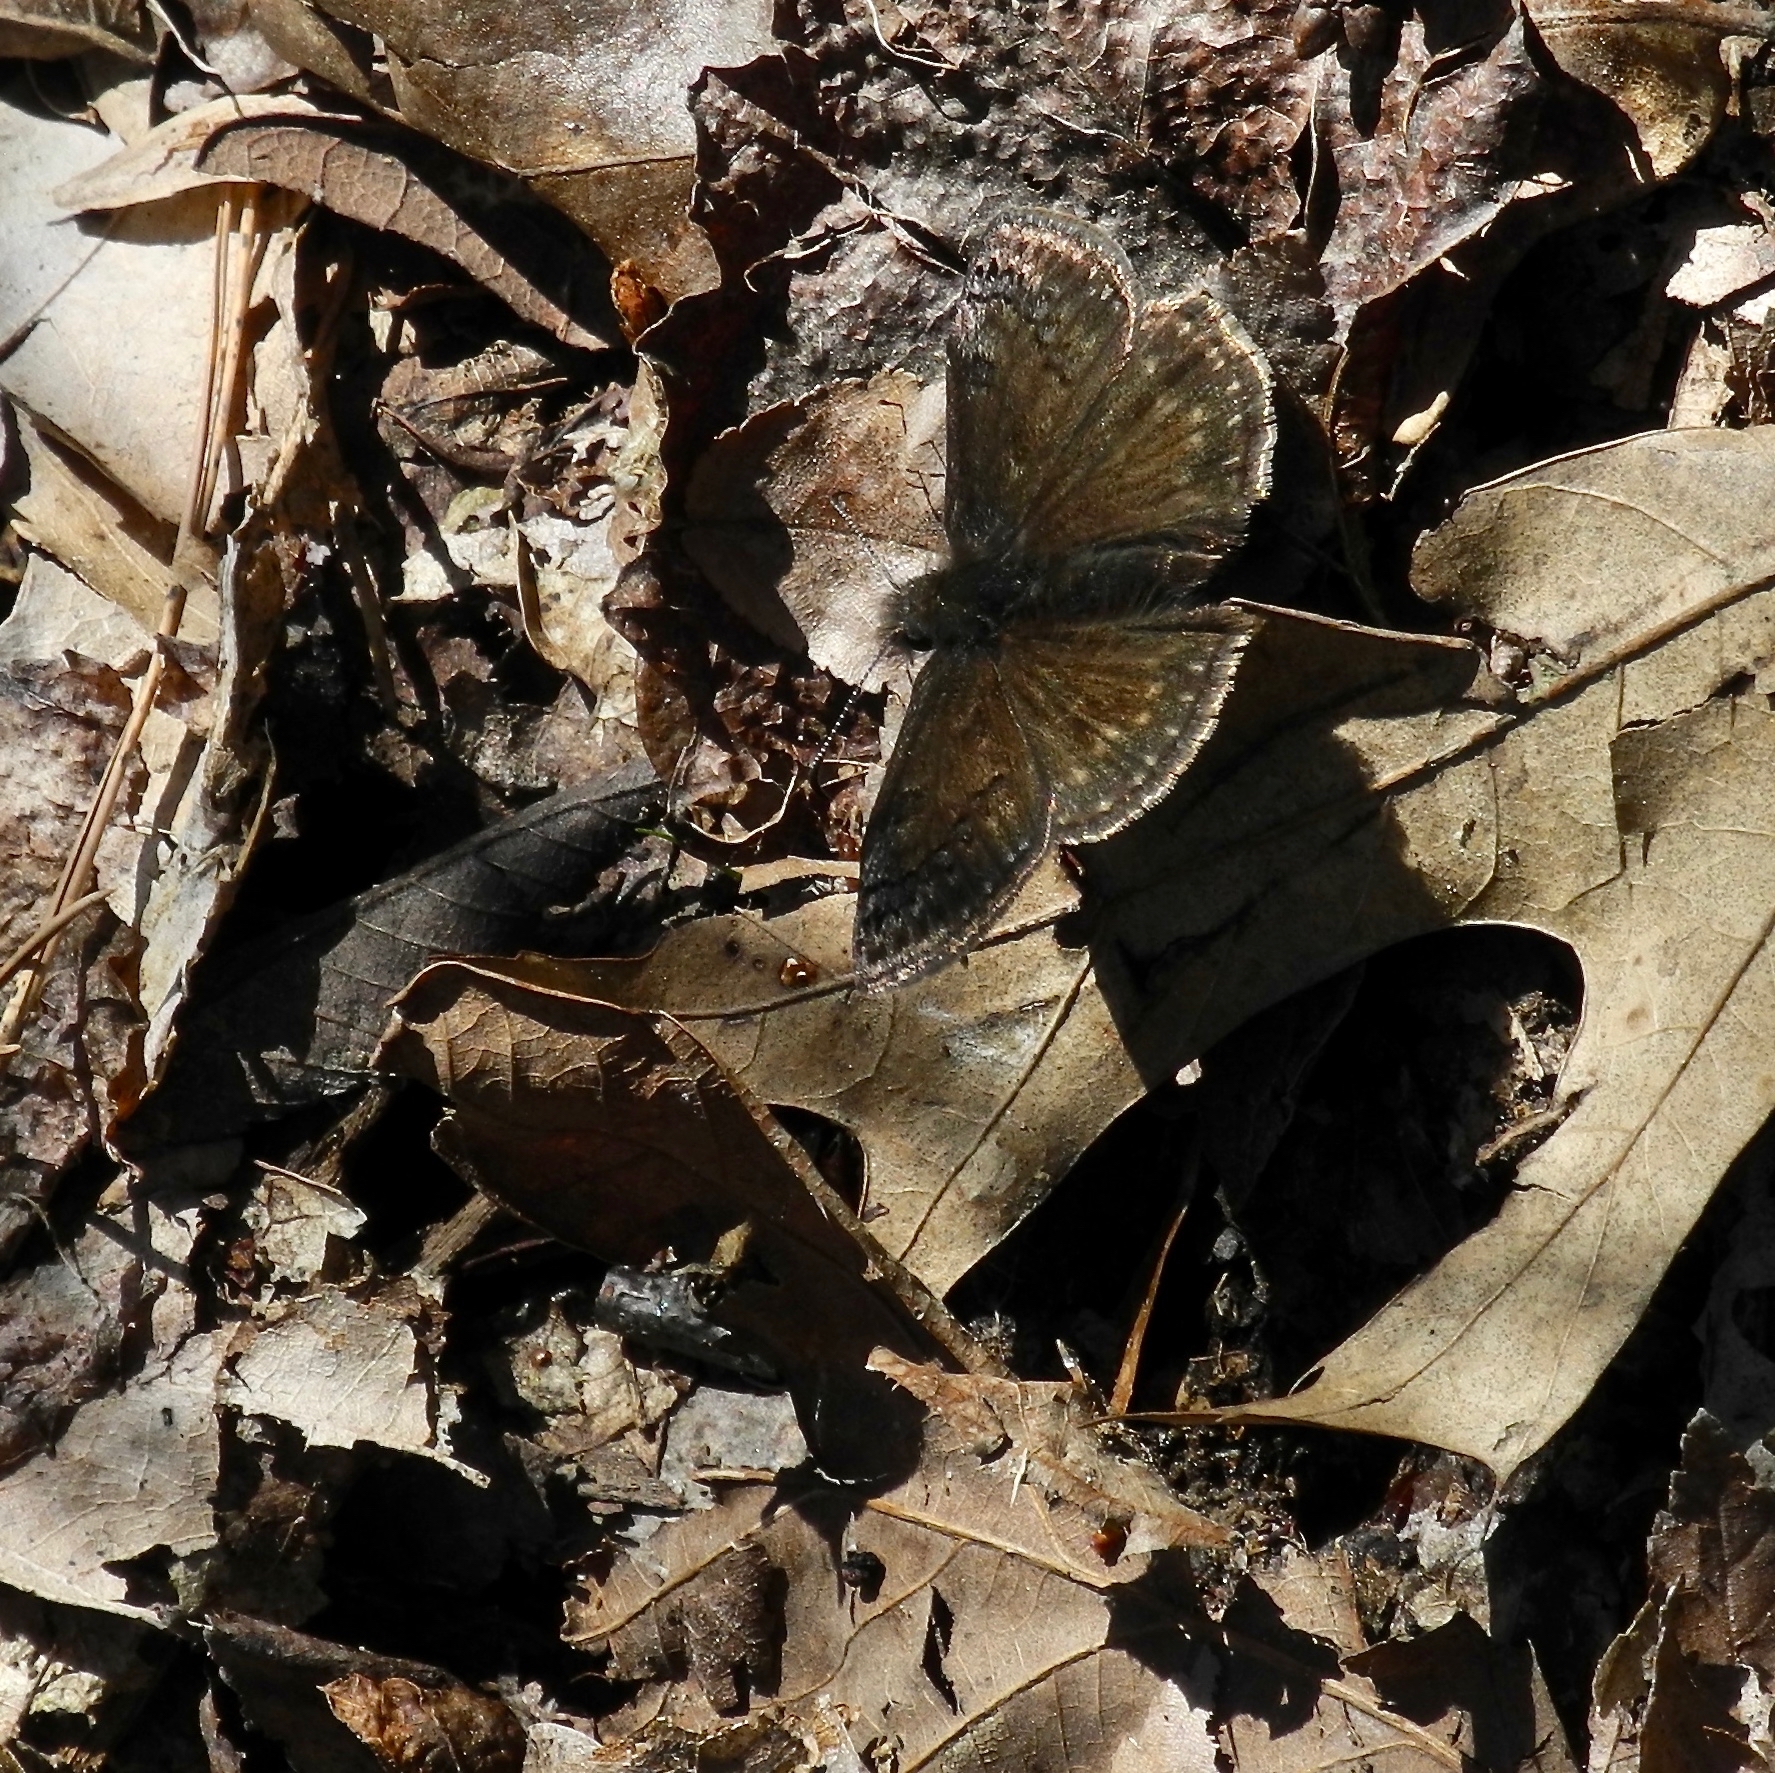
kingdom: Animalia
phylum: Arthropoda
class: Insecta
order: Lepidoptera
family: Hesperiidae
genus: Erynnis
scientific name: Erynnis brizo
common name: Sleepy duskywing
